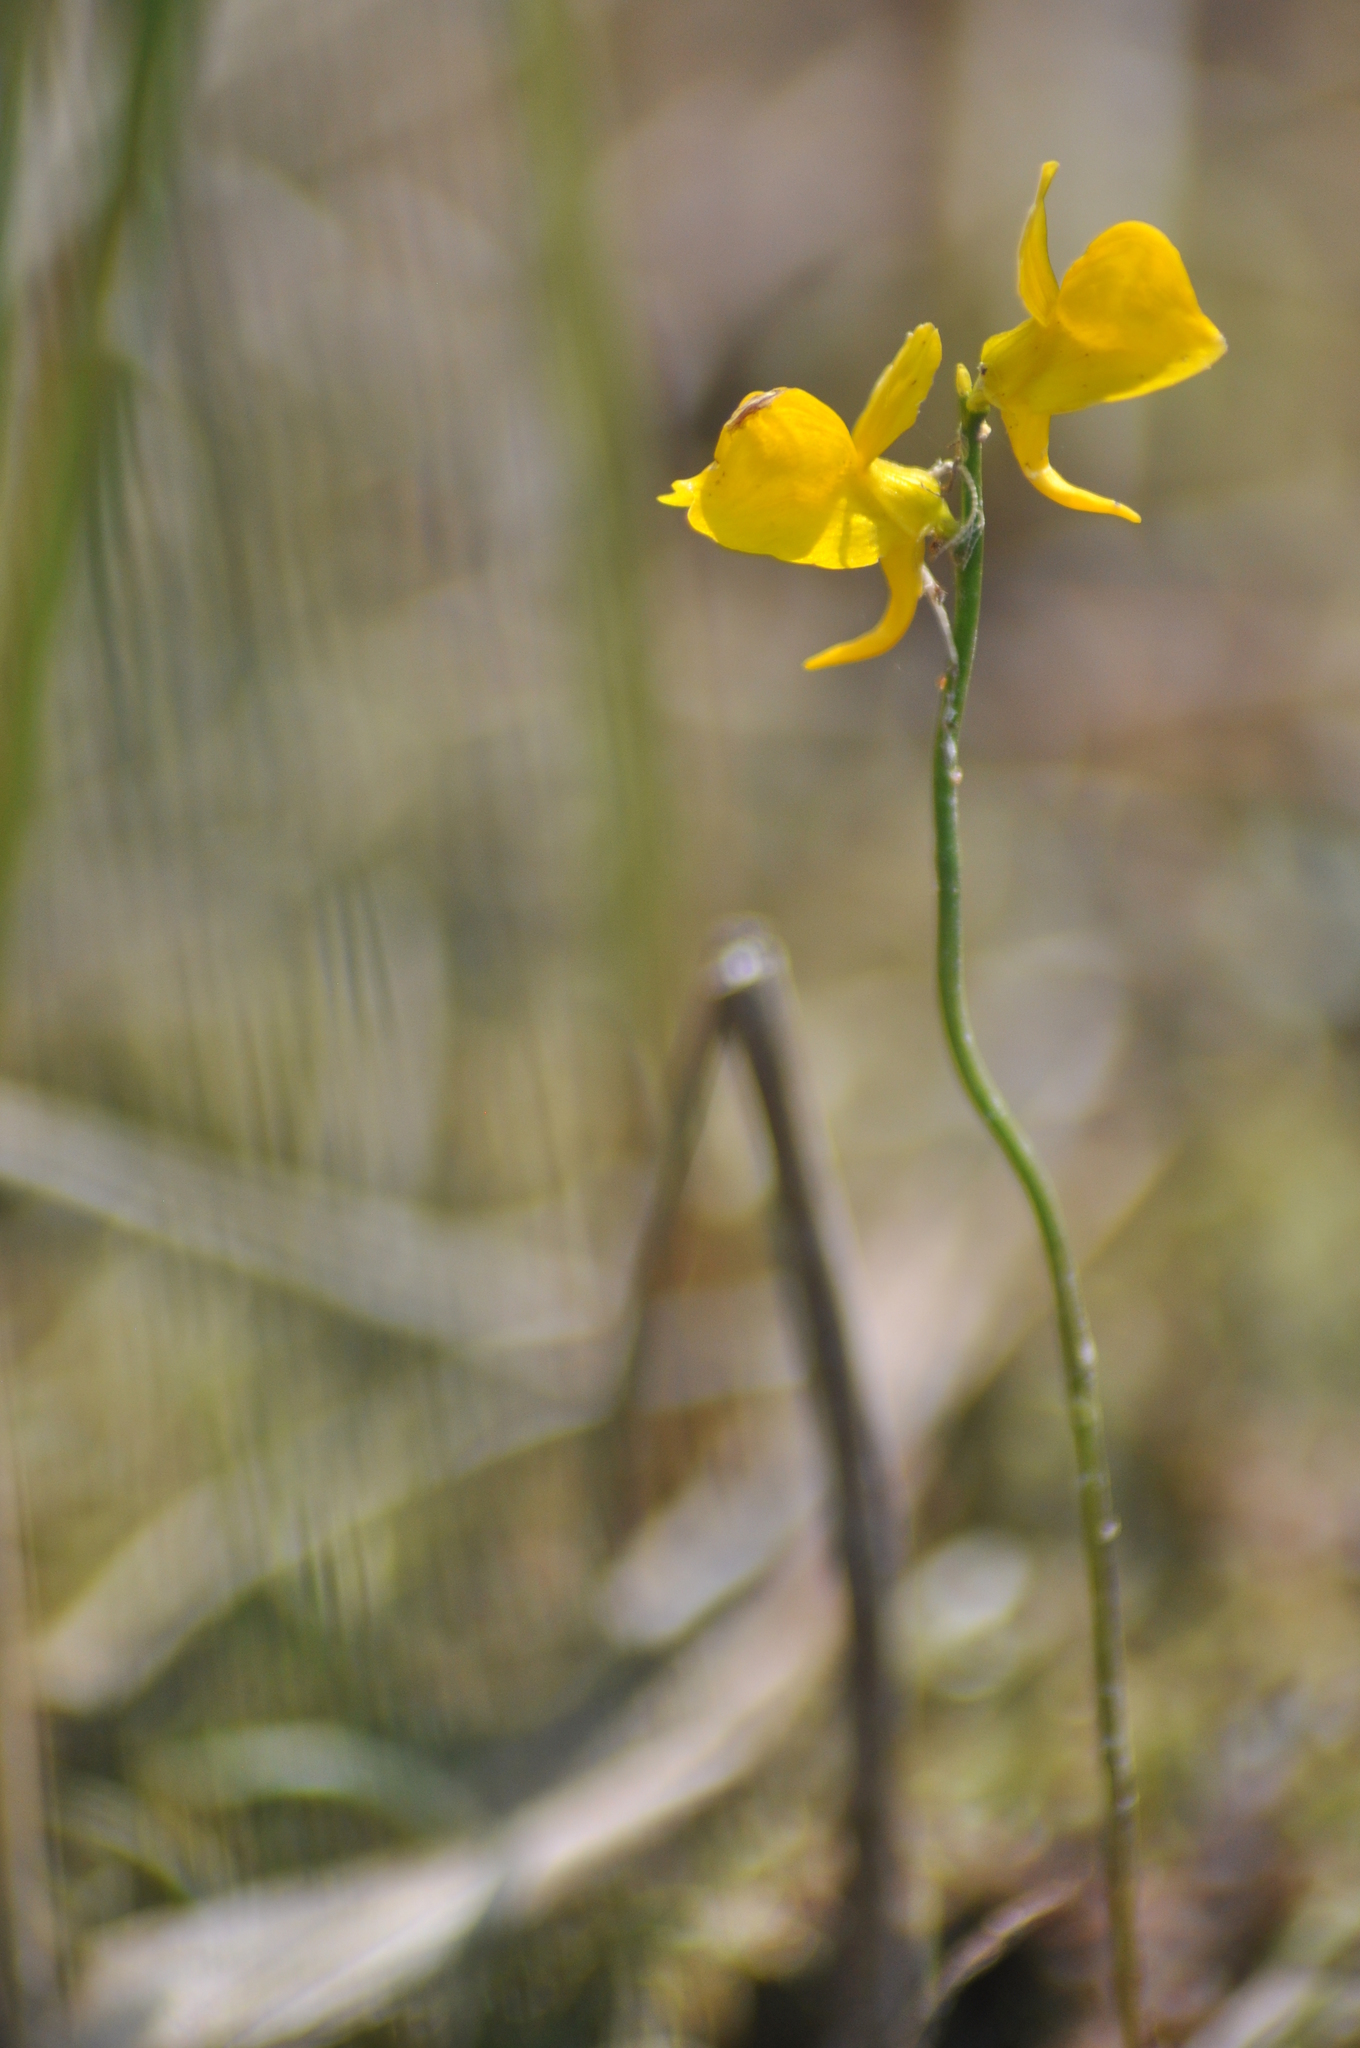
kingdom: Plantae
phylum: Tracheophyta
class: Magnoliopsida
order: Lamiales
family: Lentibulariaceae
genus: Utricularia
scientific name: Utricularia cornuta
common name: Horned bladderwort
